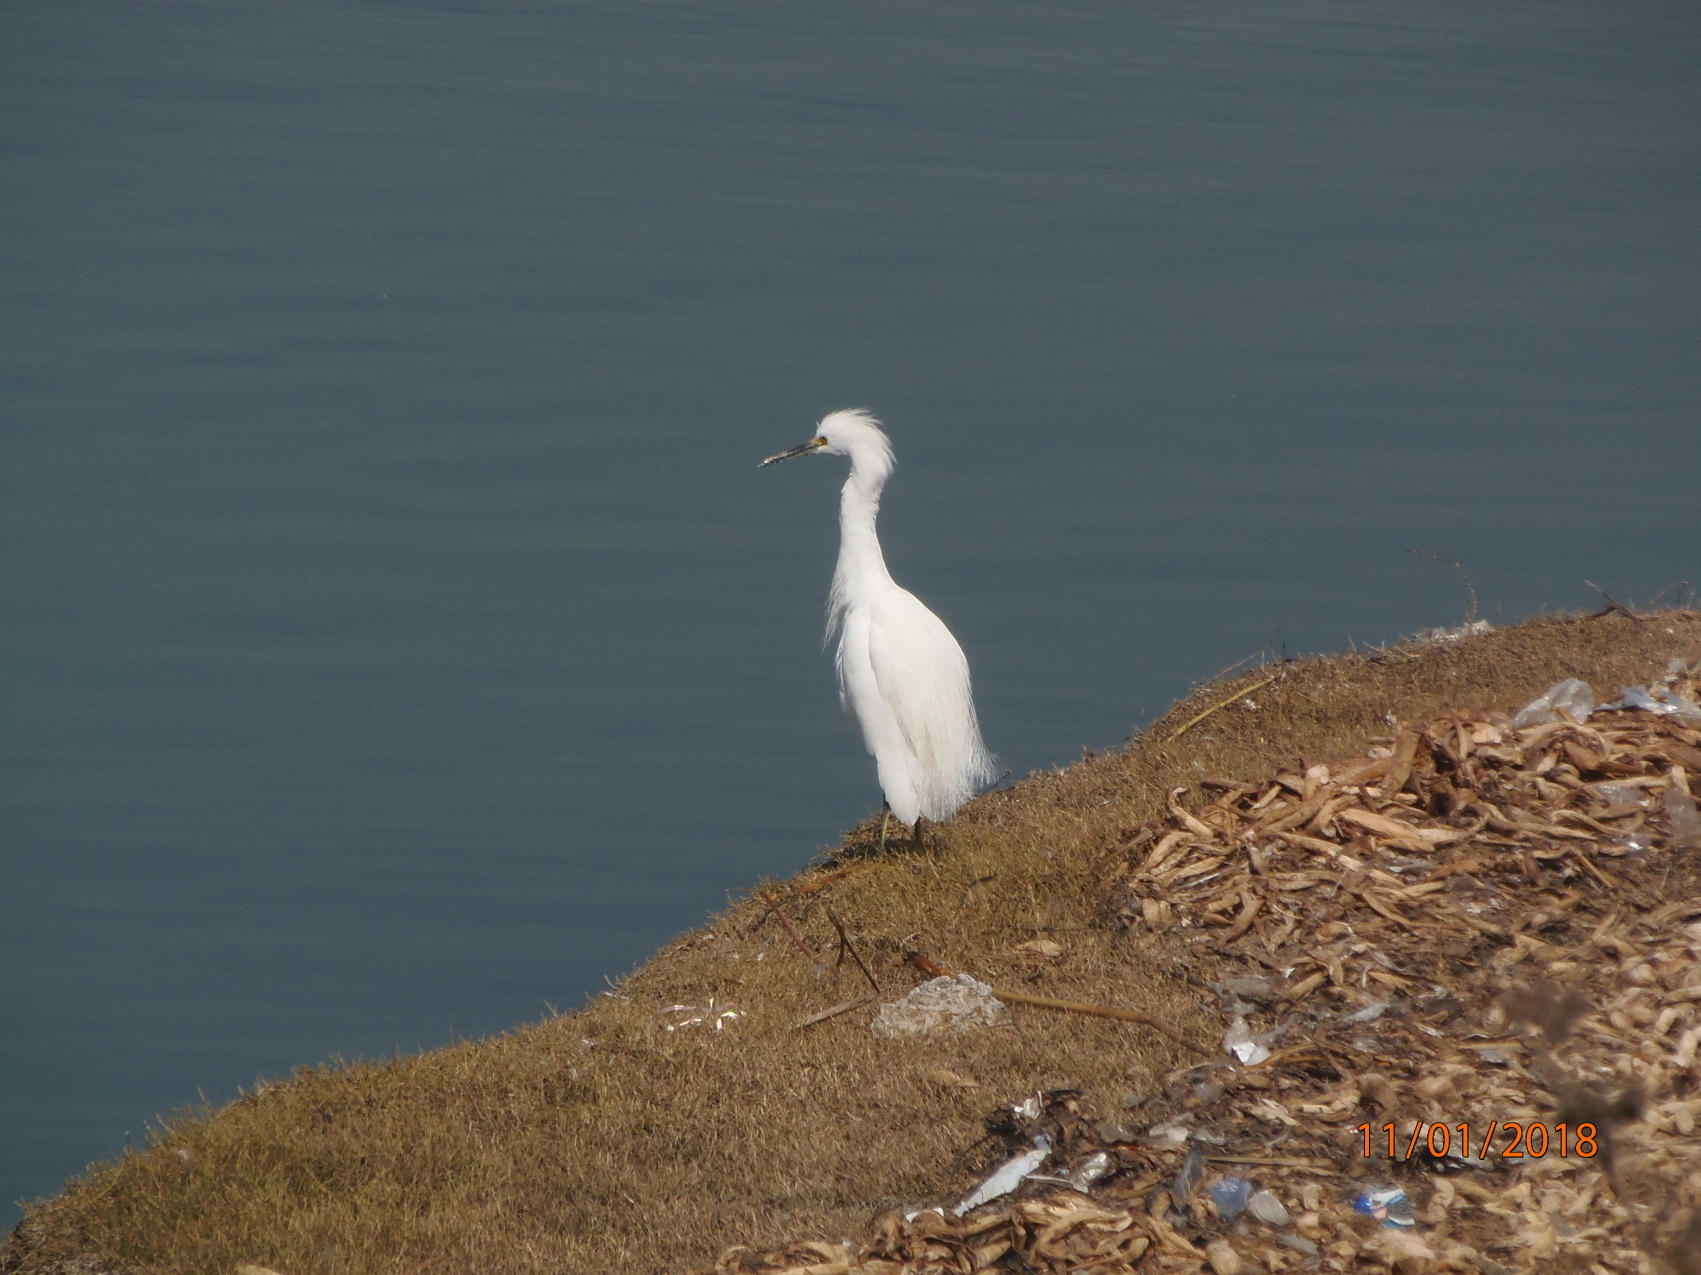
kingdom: Animalia
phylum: Chordata
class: Aves
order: Pelecaniformes
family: Ardeidae
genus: Egretta
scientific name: Egretta thula
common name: Snowy egret
